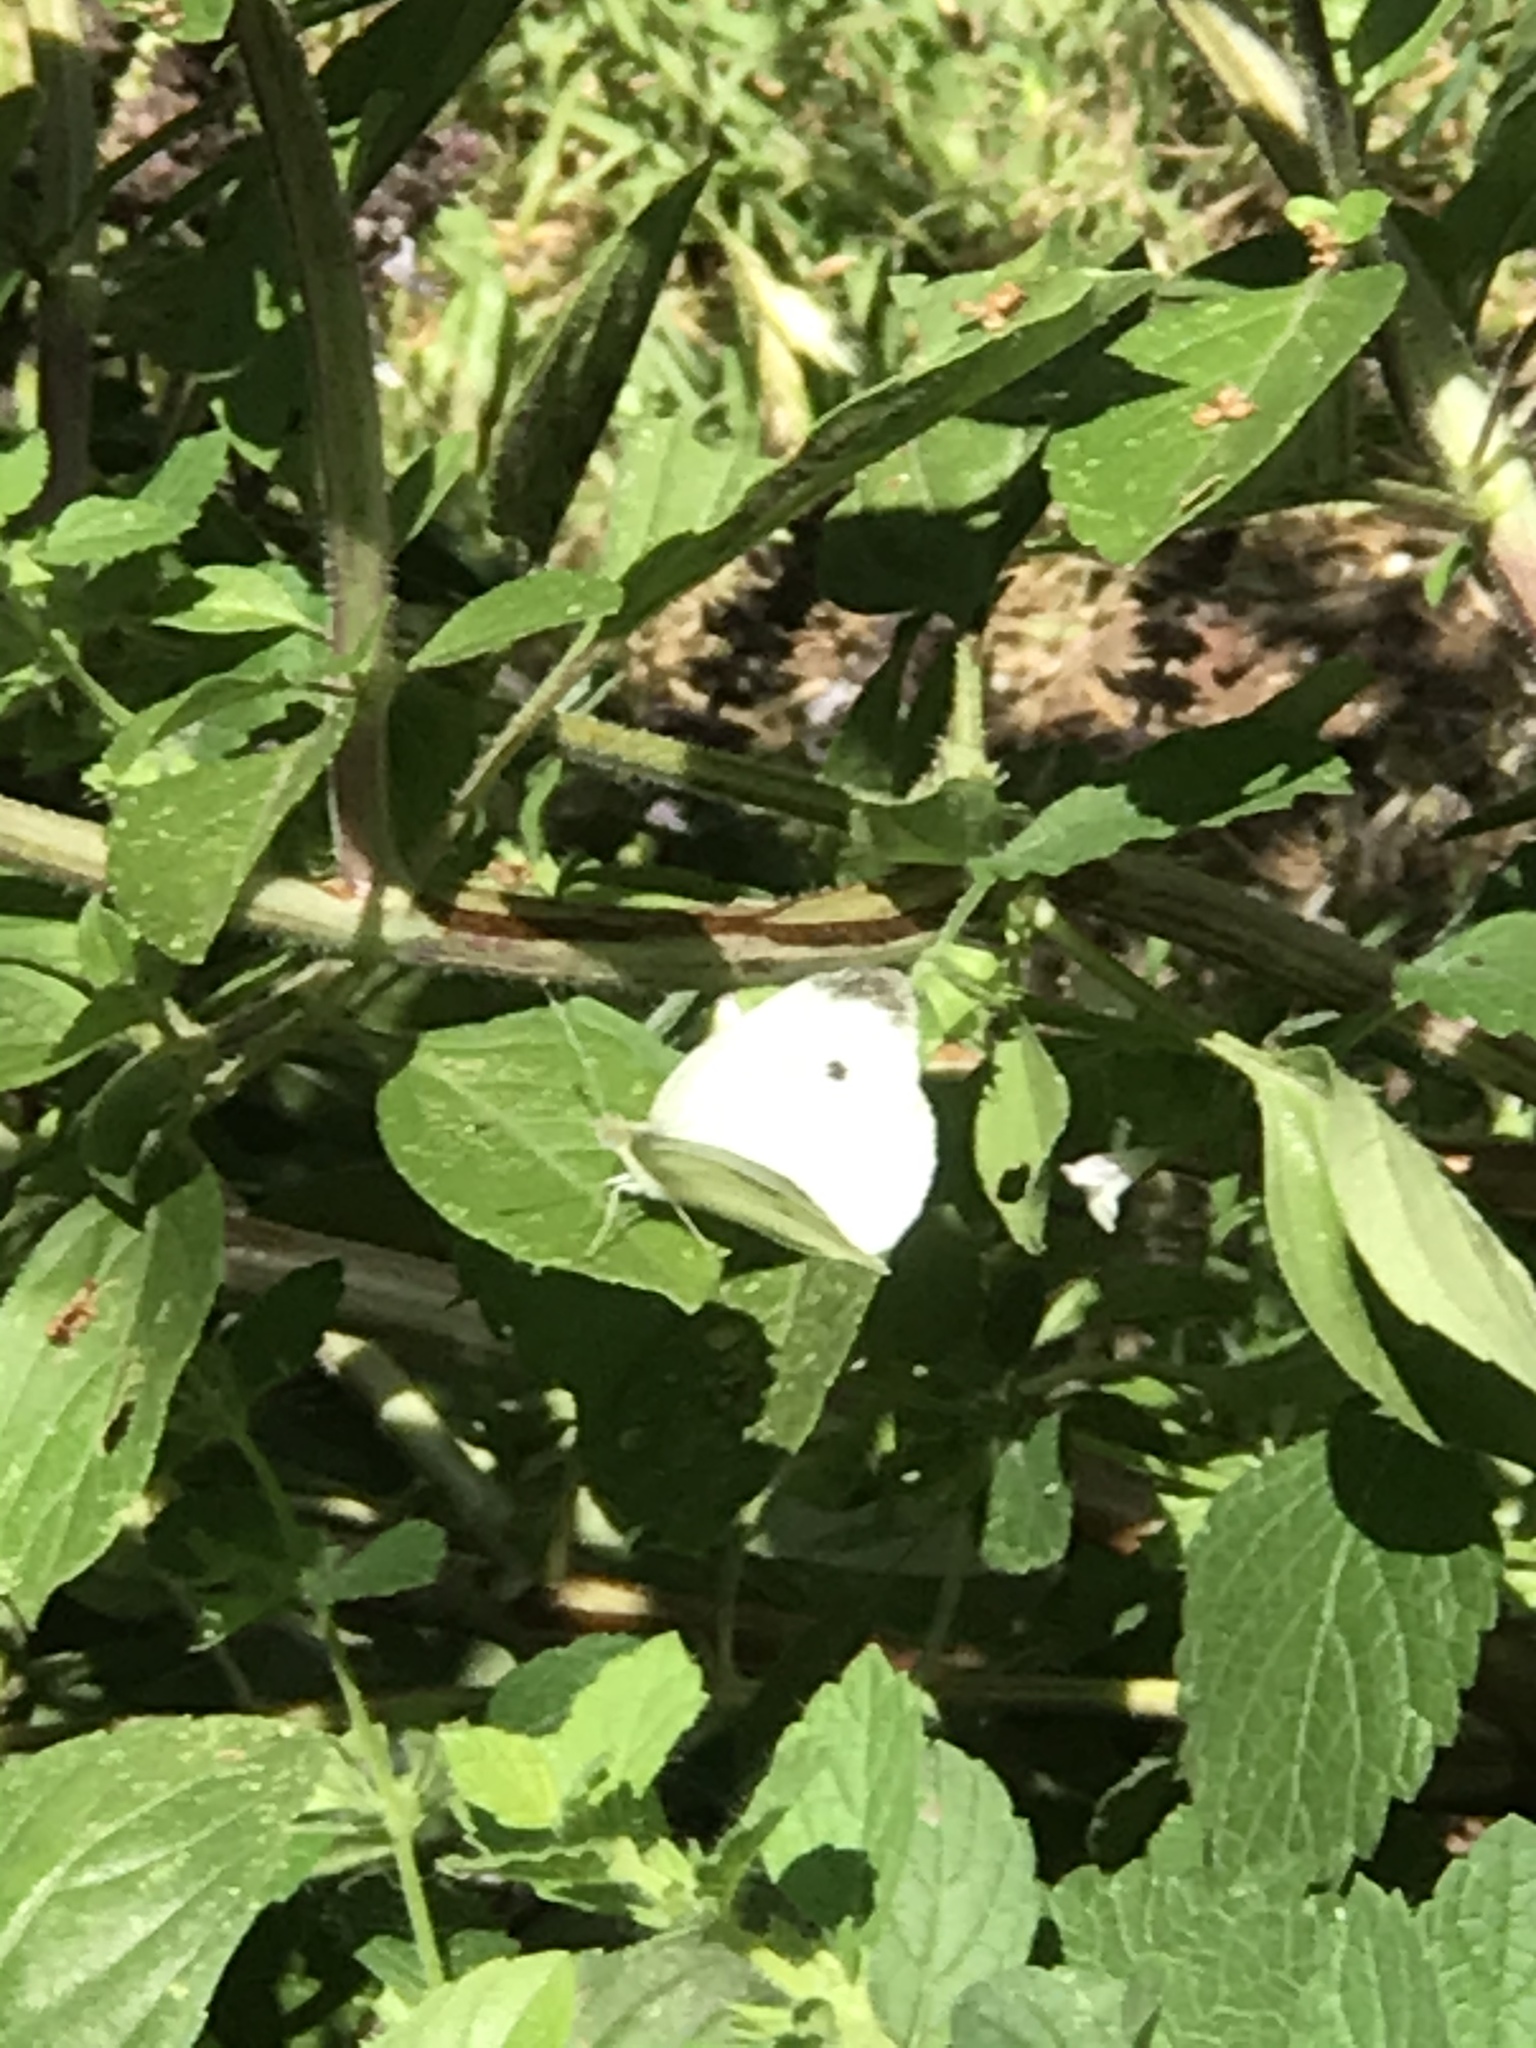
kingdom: Animalia
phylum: Arthropoda
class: Insecta
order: Lepidoptera
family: Pieridae
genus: Pieris
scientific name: Pieris rapae
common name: Small white
